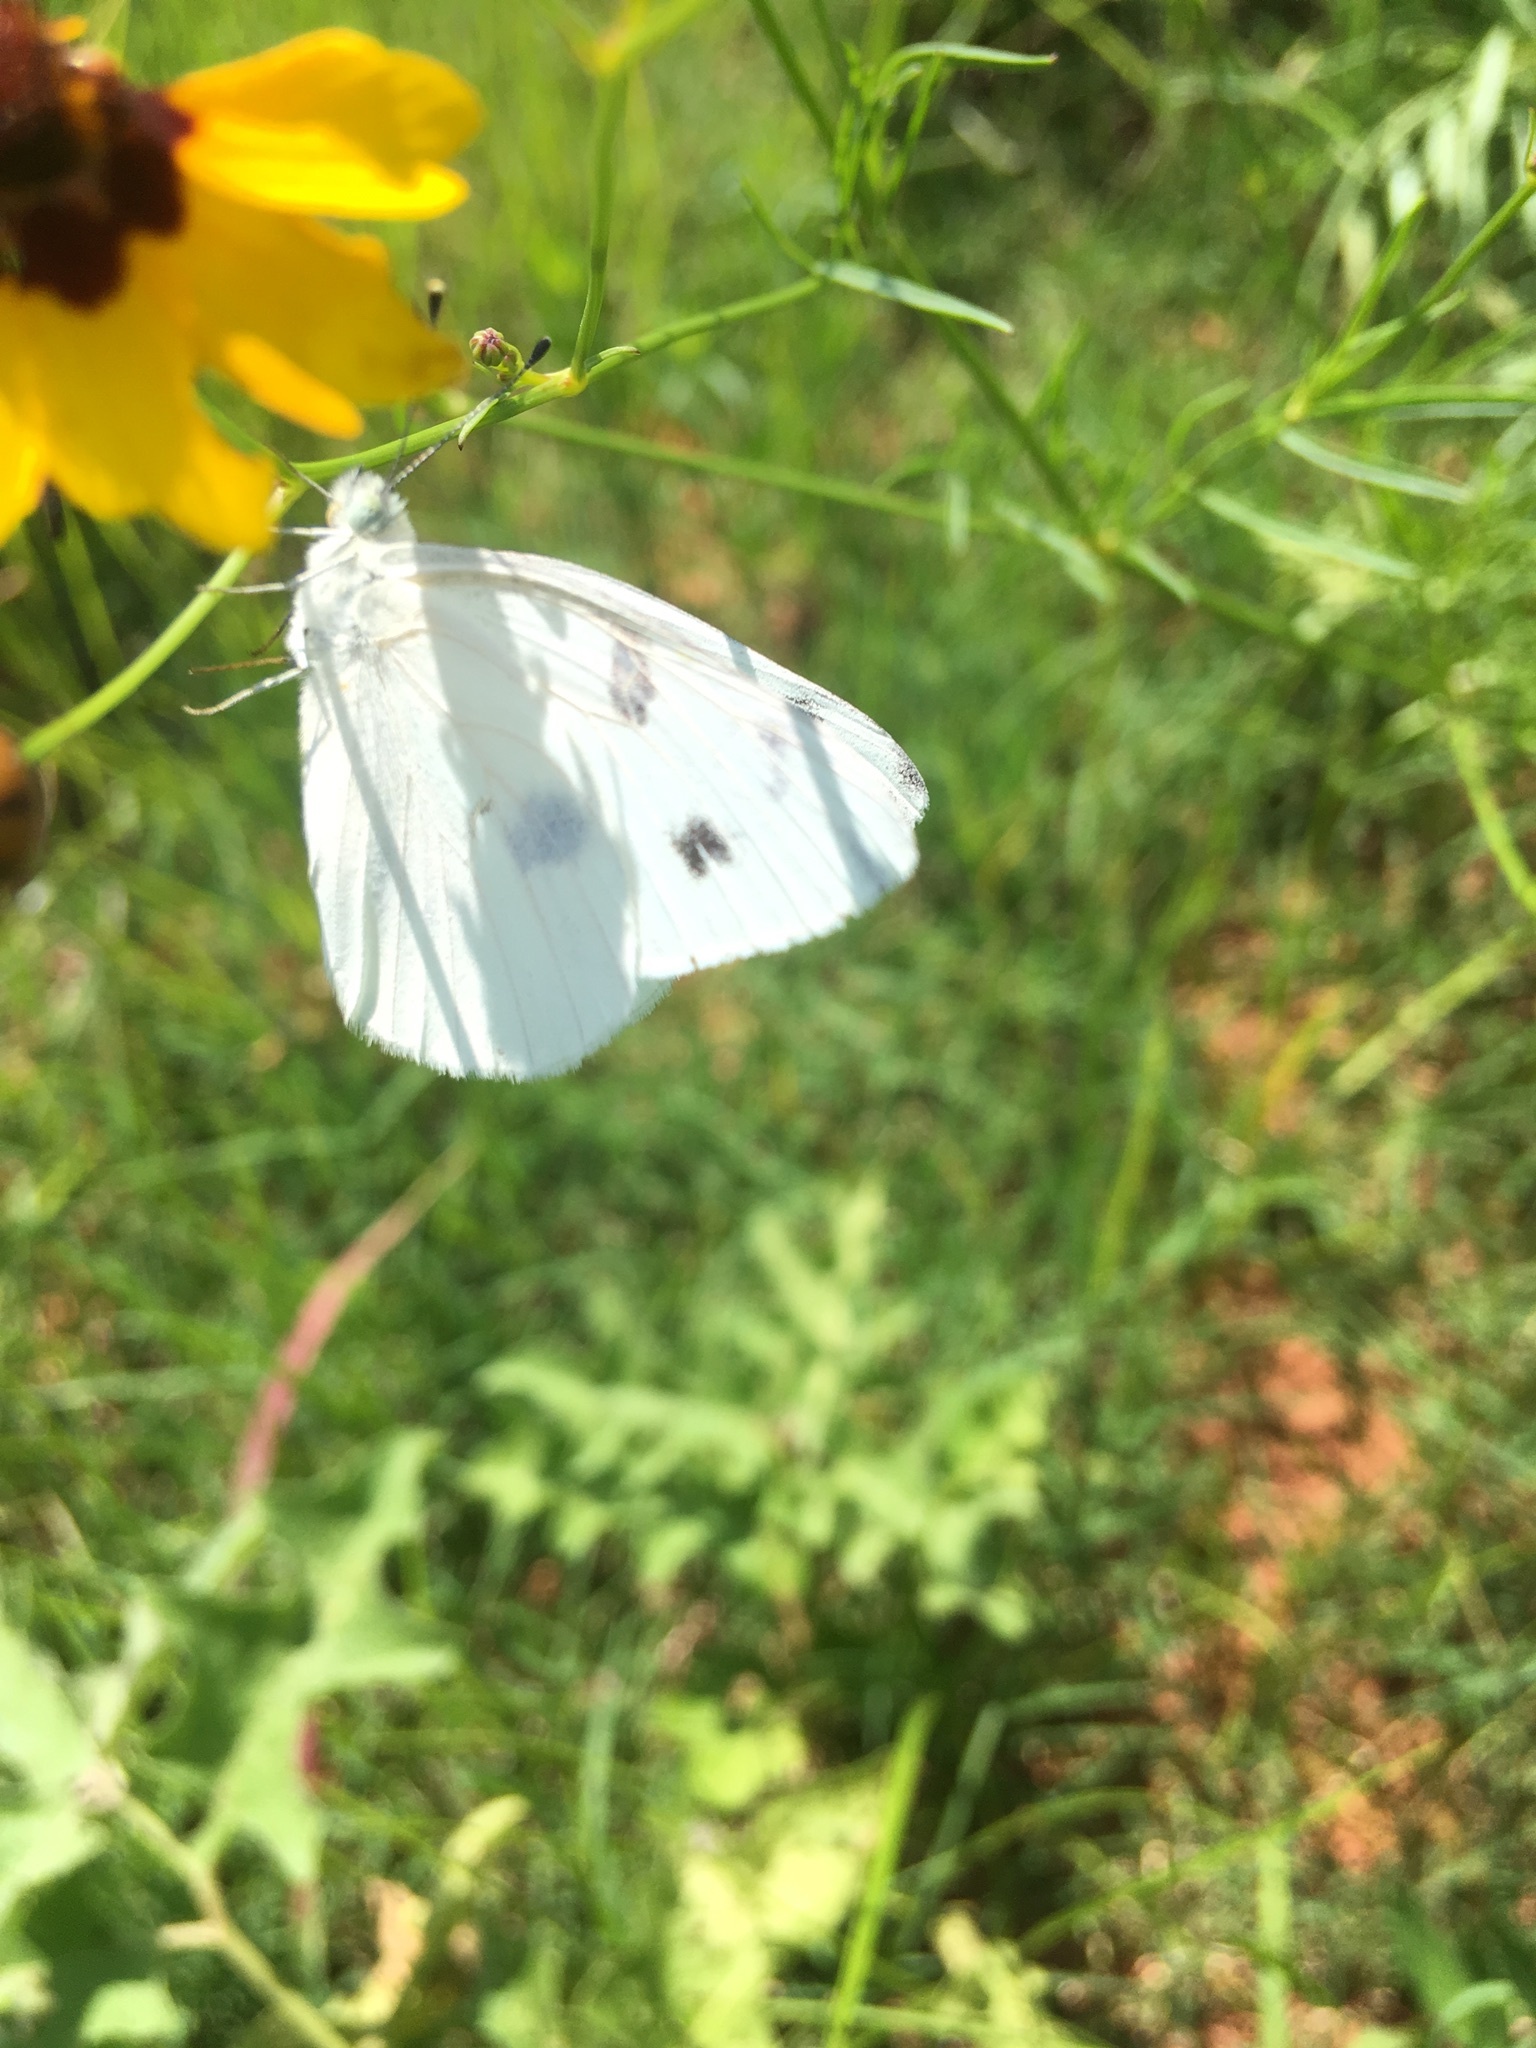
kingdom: Animalia
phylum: Arthropoda
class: Insecta
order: Lepidoptera
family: Pieridae
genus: Pontia
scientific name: Pontia protodice
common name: Checkered white
